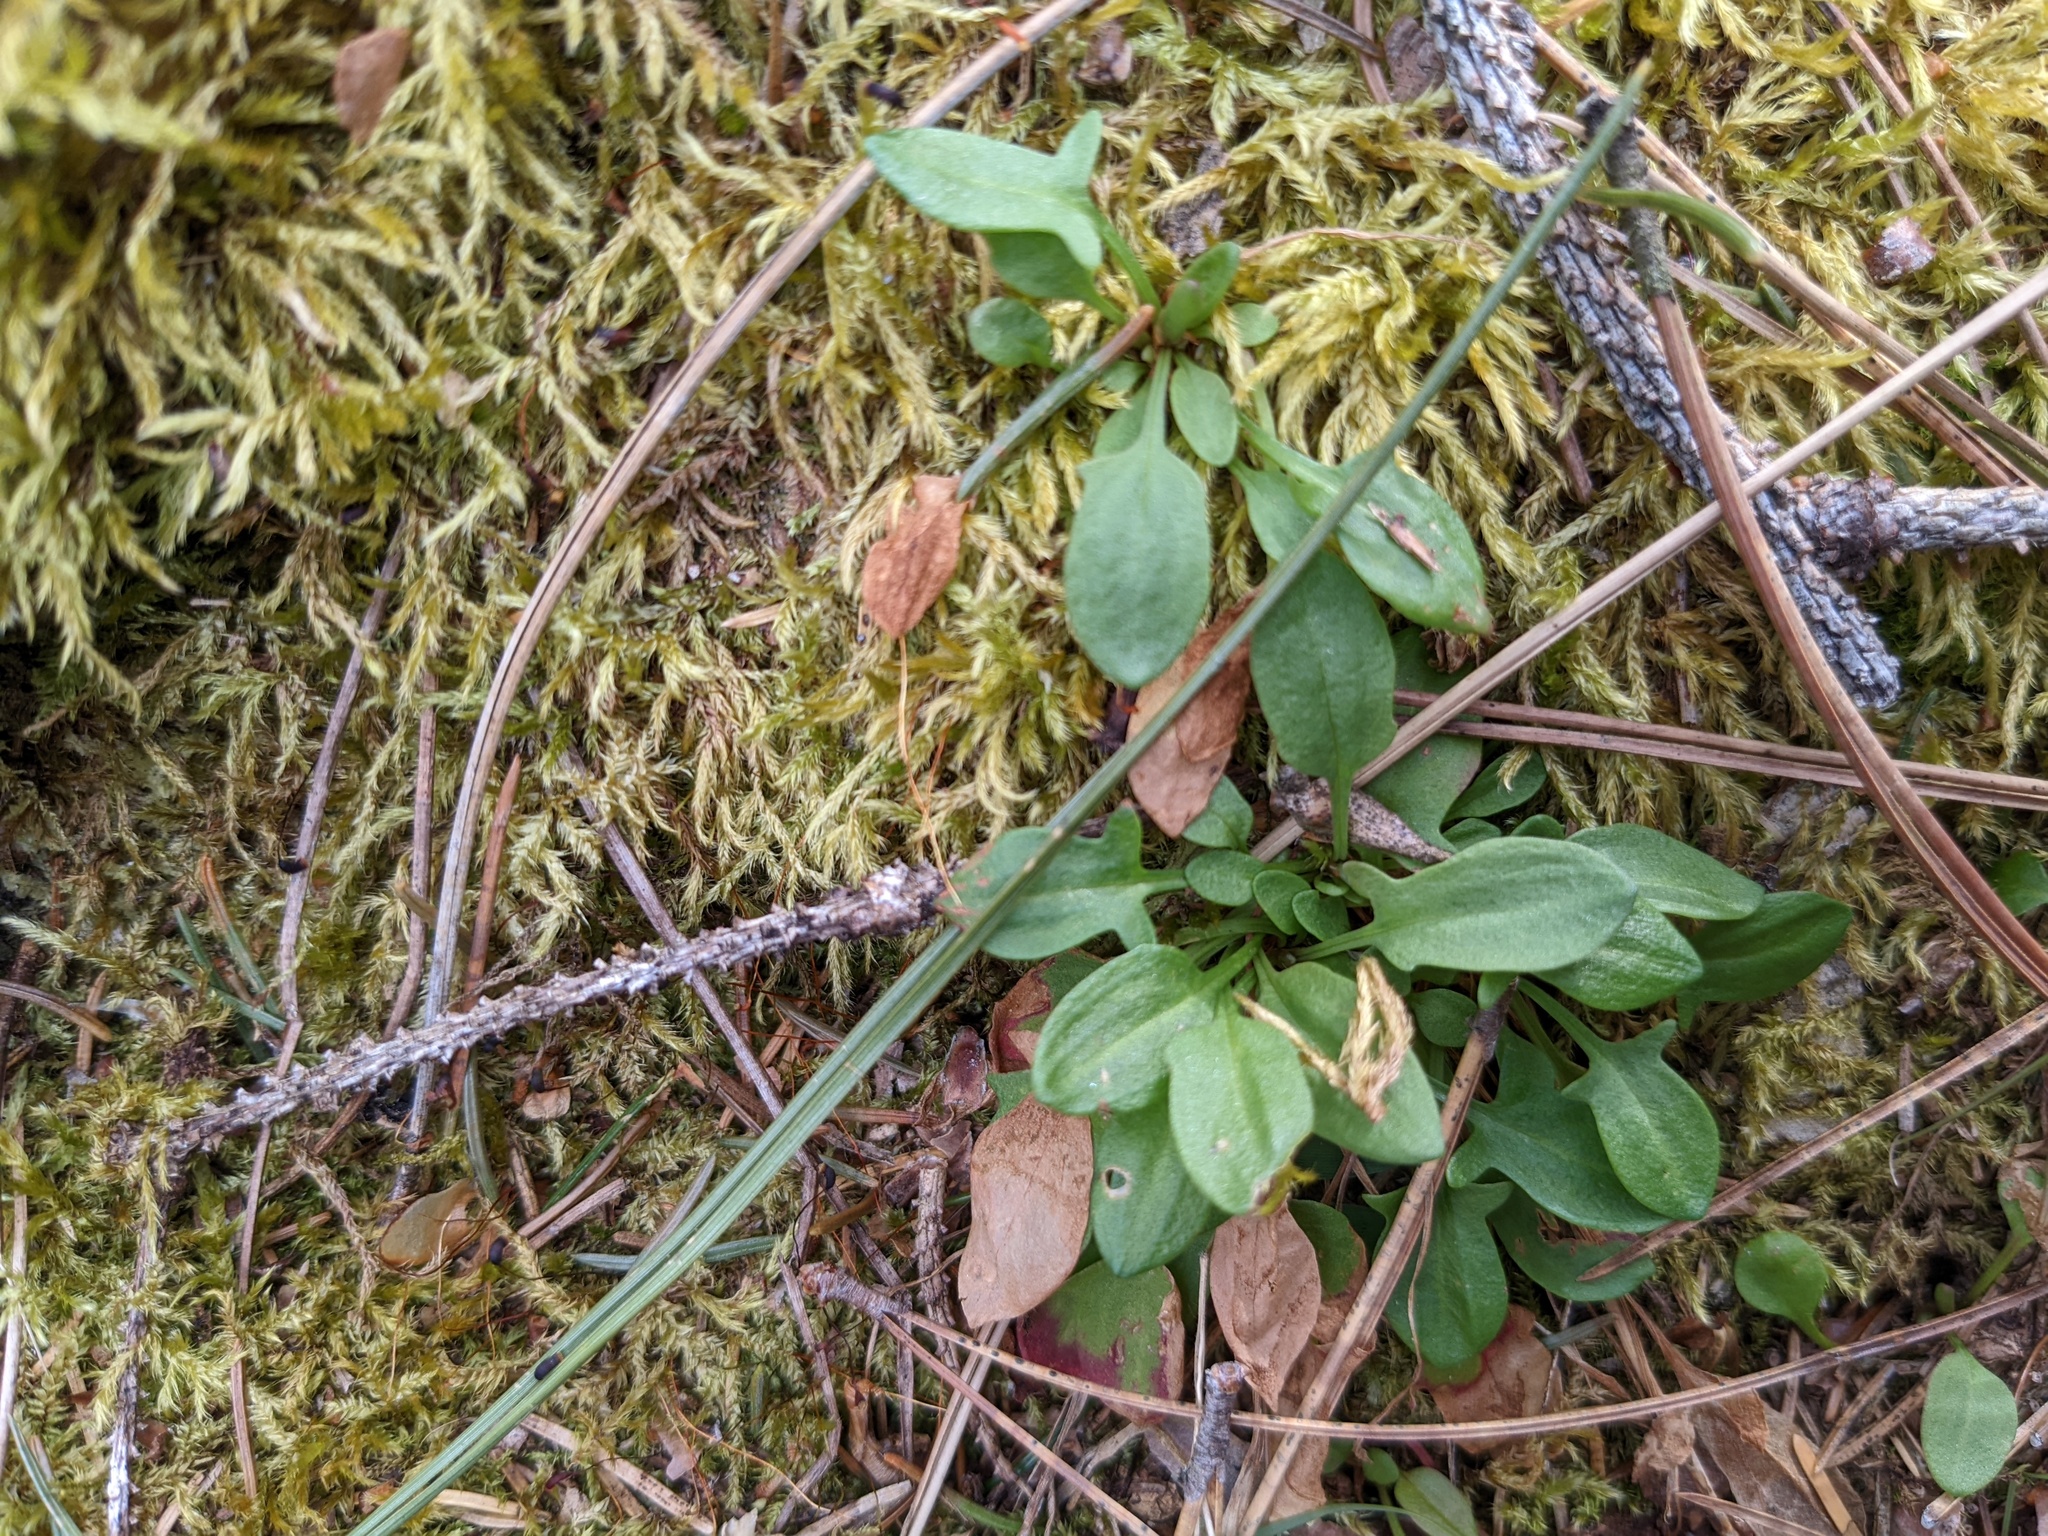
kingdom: Plantae
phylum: Tracheophyta
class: Magnoliopsida
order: Caryophyllales
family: Polygonaceae
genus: Rumex
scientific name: Rumex acetosella
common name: Common sheep sorrel
